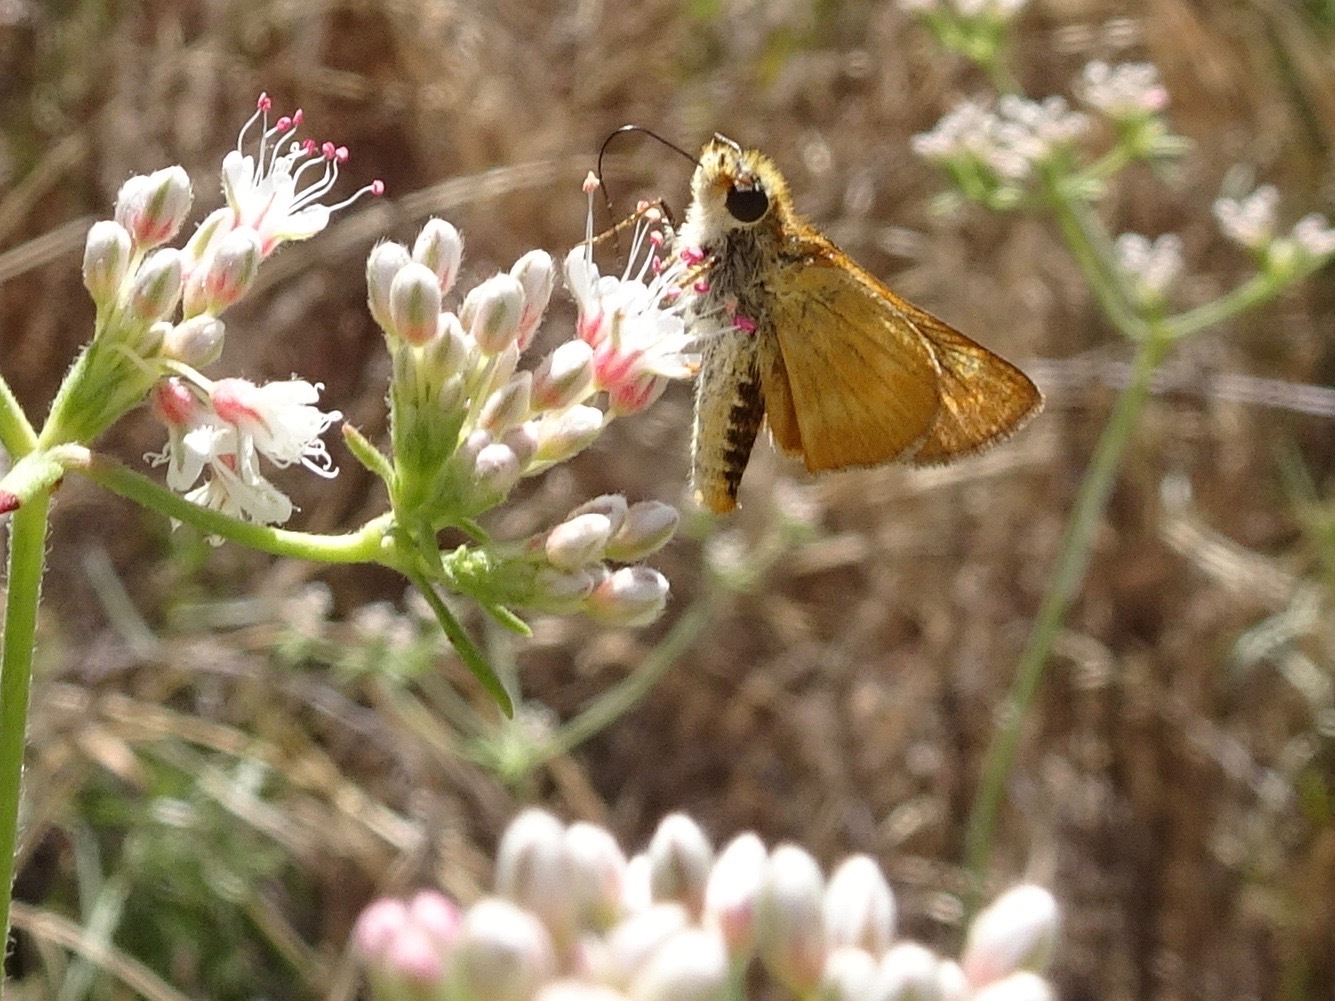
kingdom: Animalia
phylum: Arthropoda
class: Insecta
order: Lepidoptera
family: Hesperiidae
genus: Ochlodes
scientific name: Ochlodes agricola
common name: Rural skipper
